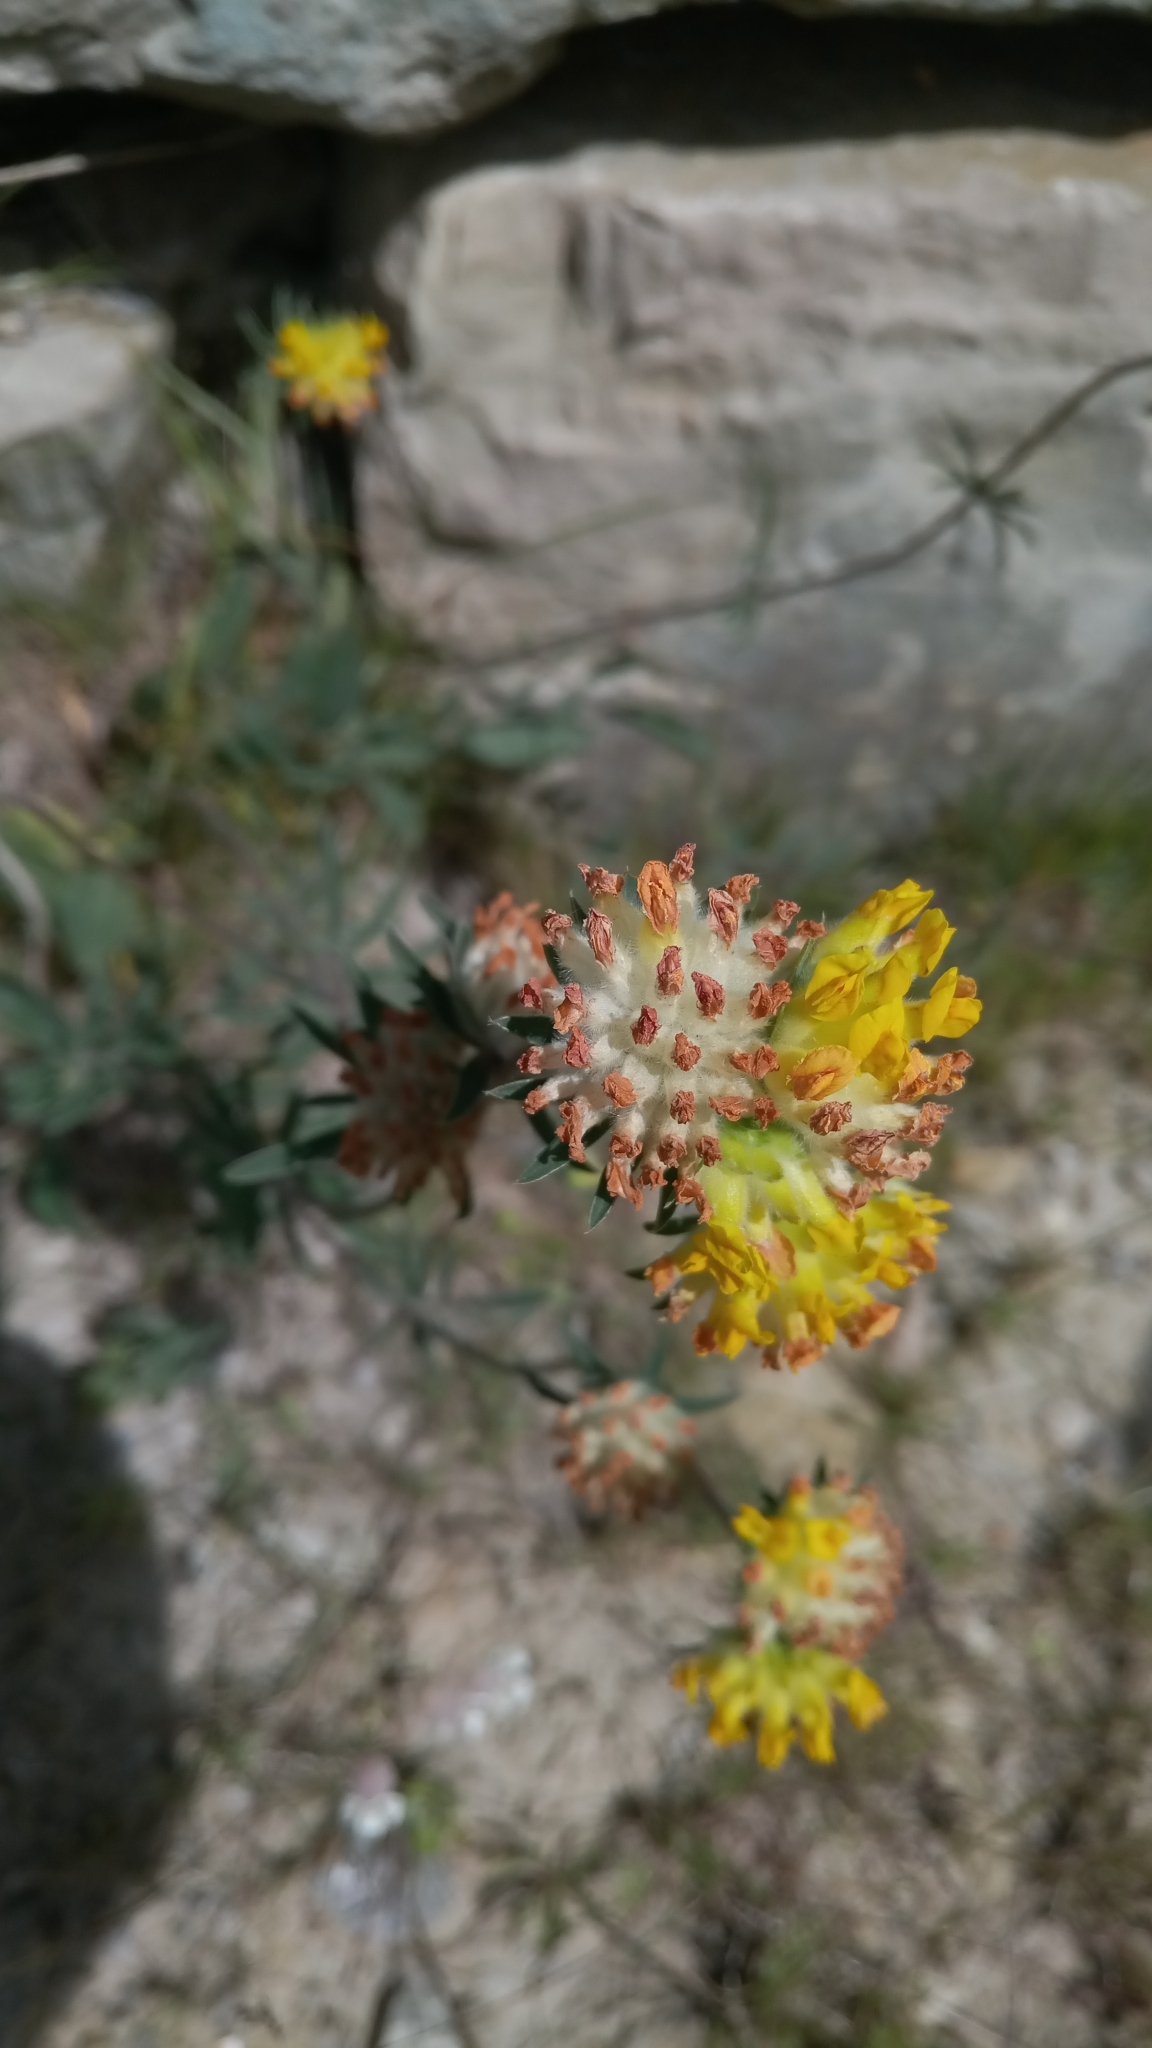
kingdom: Plantae
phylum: Tracheophyta
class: Magnoliopsida
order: Fabales
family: Fabaceae
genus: Anthyllis
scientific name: Anthyllis vulneraria
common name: Kidney vetch
